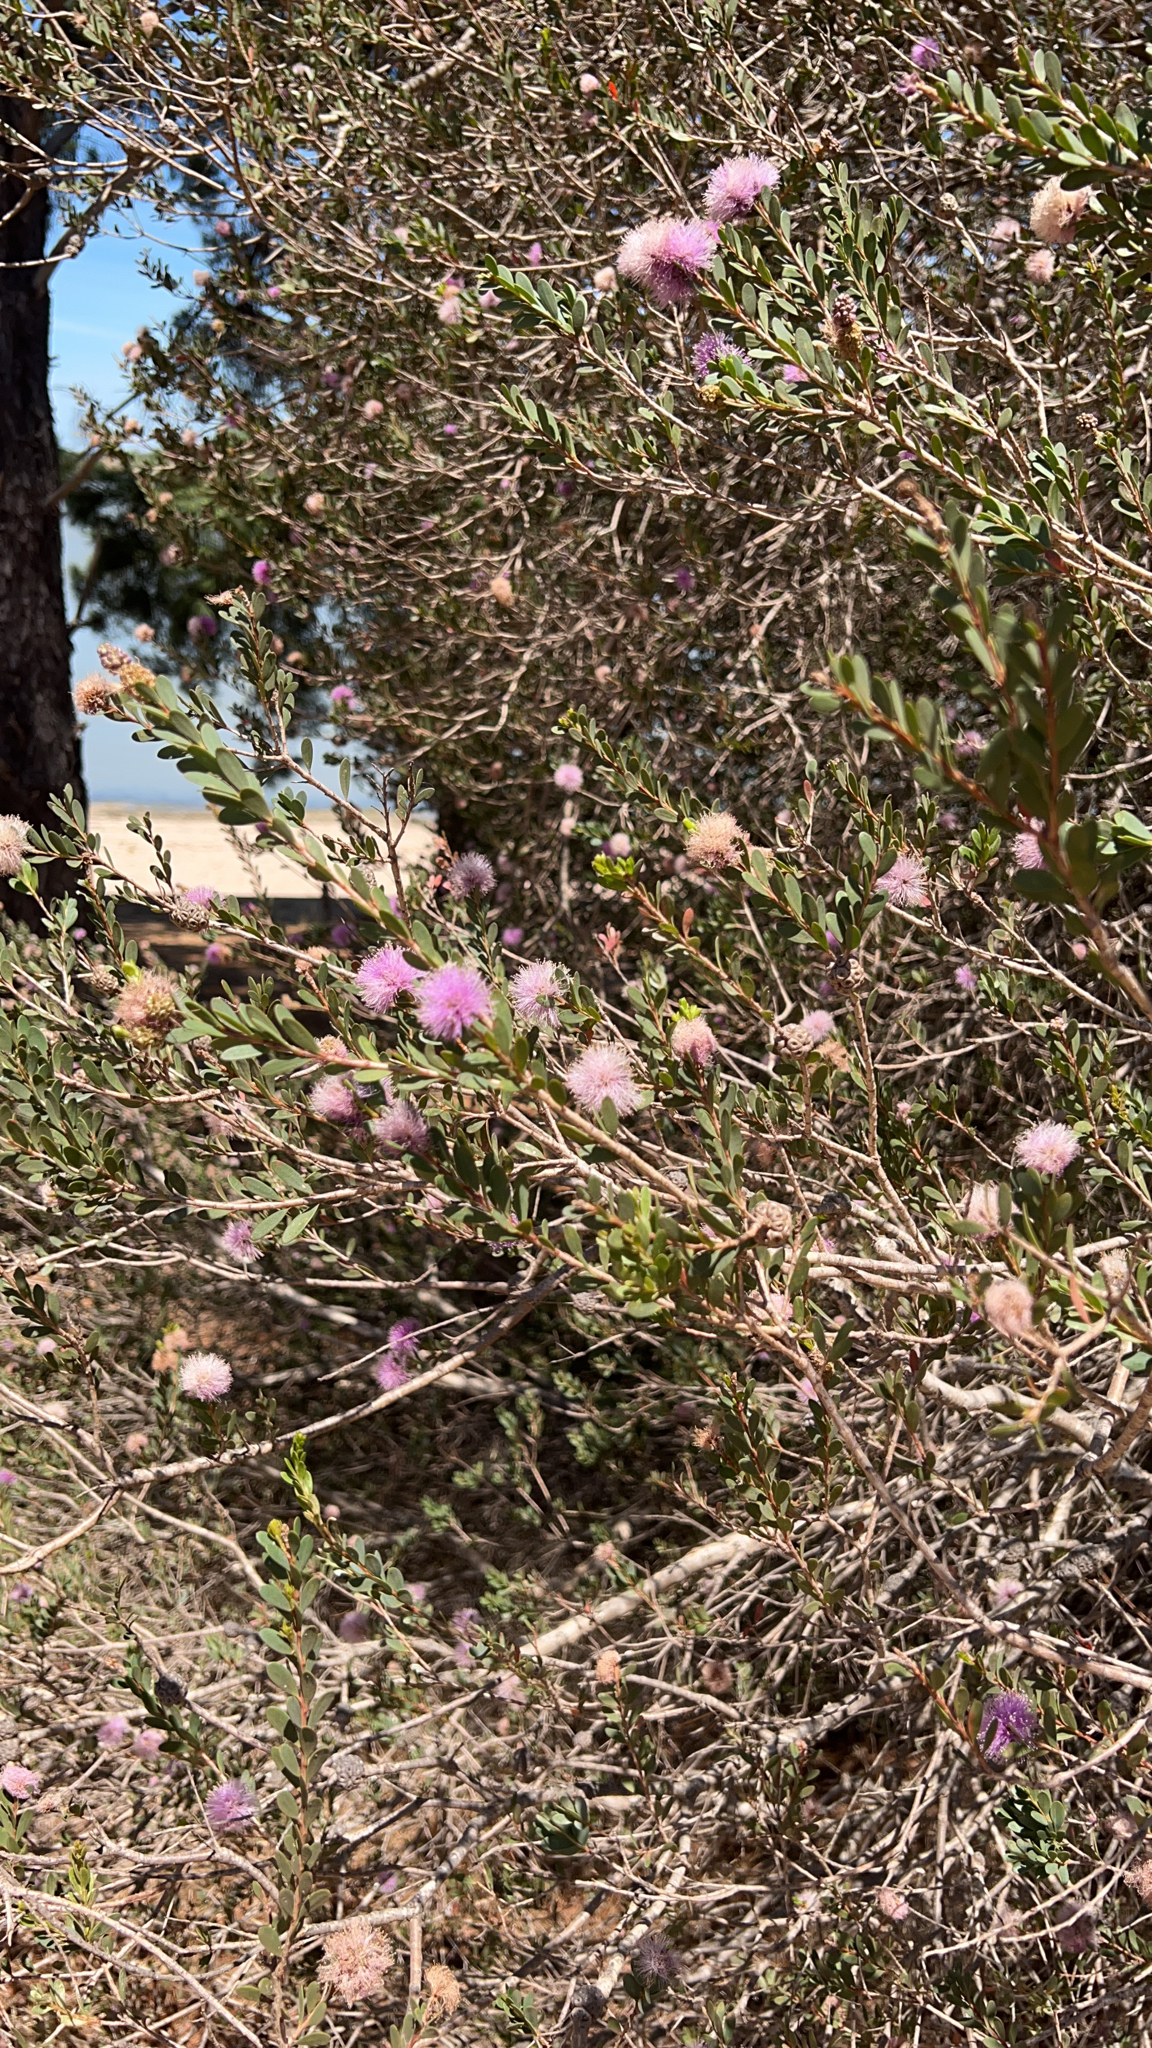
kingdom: Plantae
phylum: Tracheophyta
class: Magnoliopsida
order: Myrtales
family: Myrtaceae
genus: Melaleuca
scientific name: Melaleuca nesophila
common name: Mauve honey myrtle
